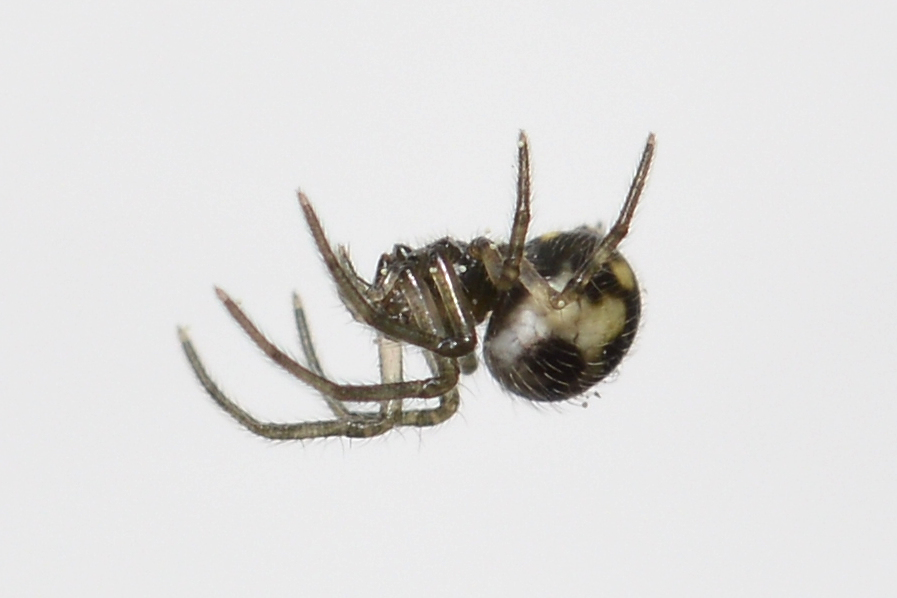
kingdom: Animalia
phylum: Arthropoda
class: Arachnida
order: Araneae
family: Tetragnathidae
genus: Meta
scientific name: Meta menardi
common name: Cave spider
